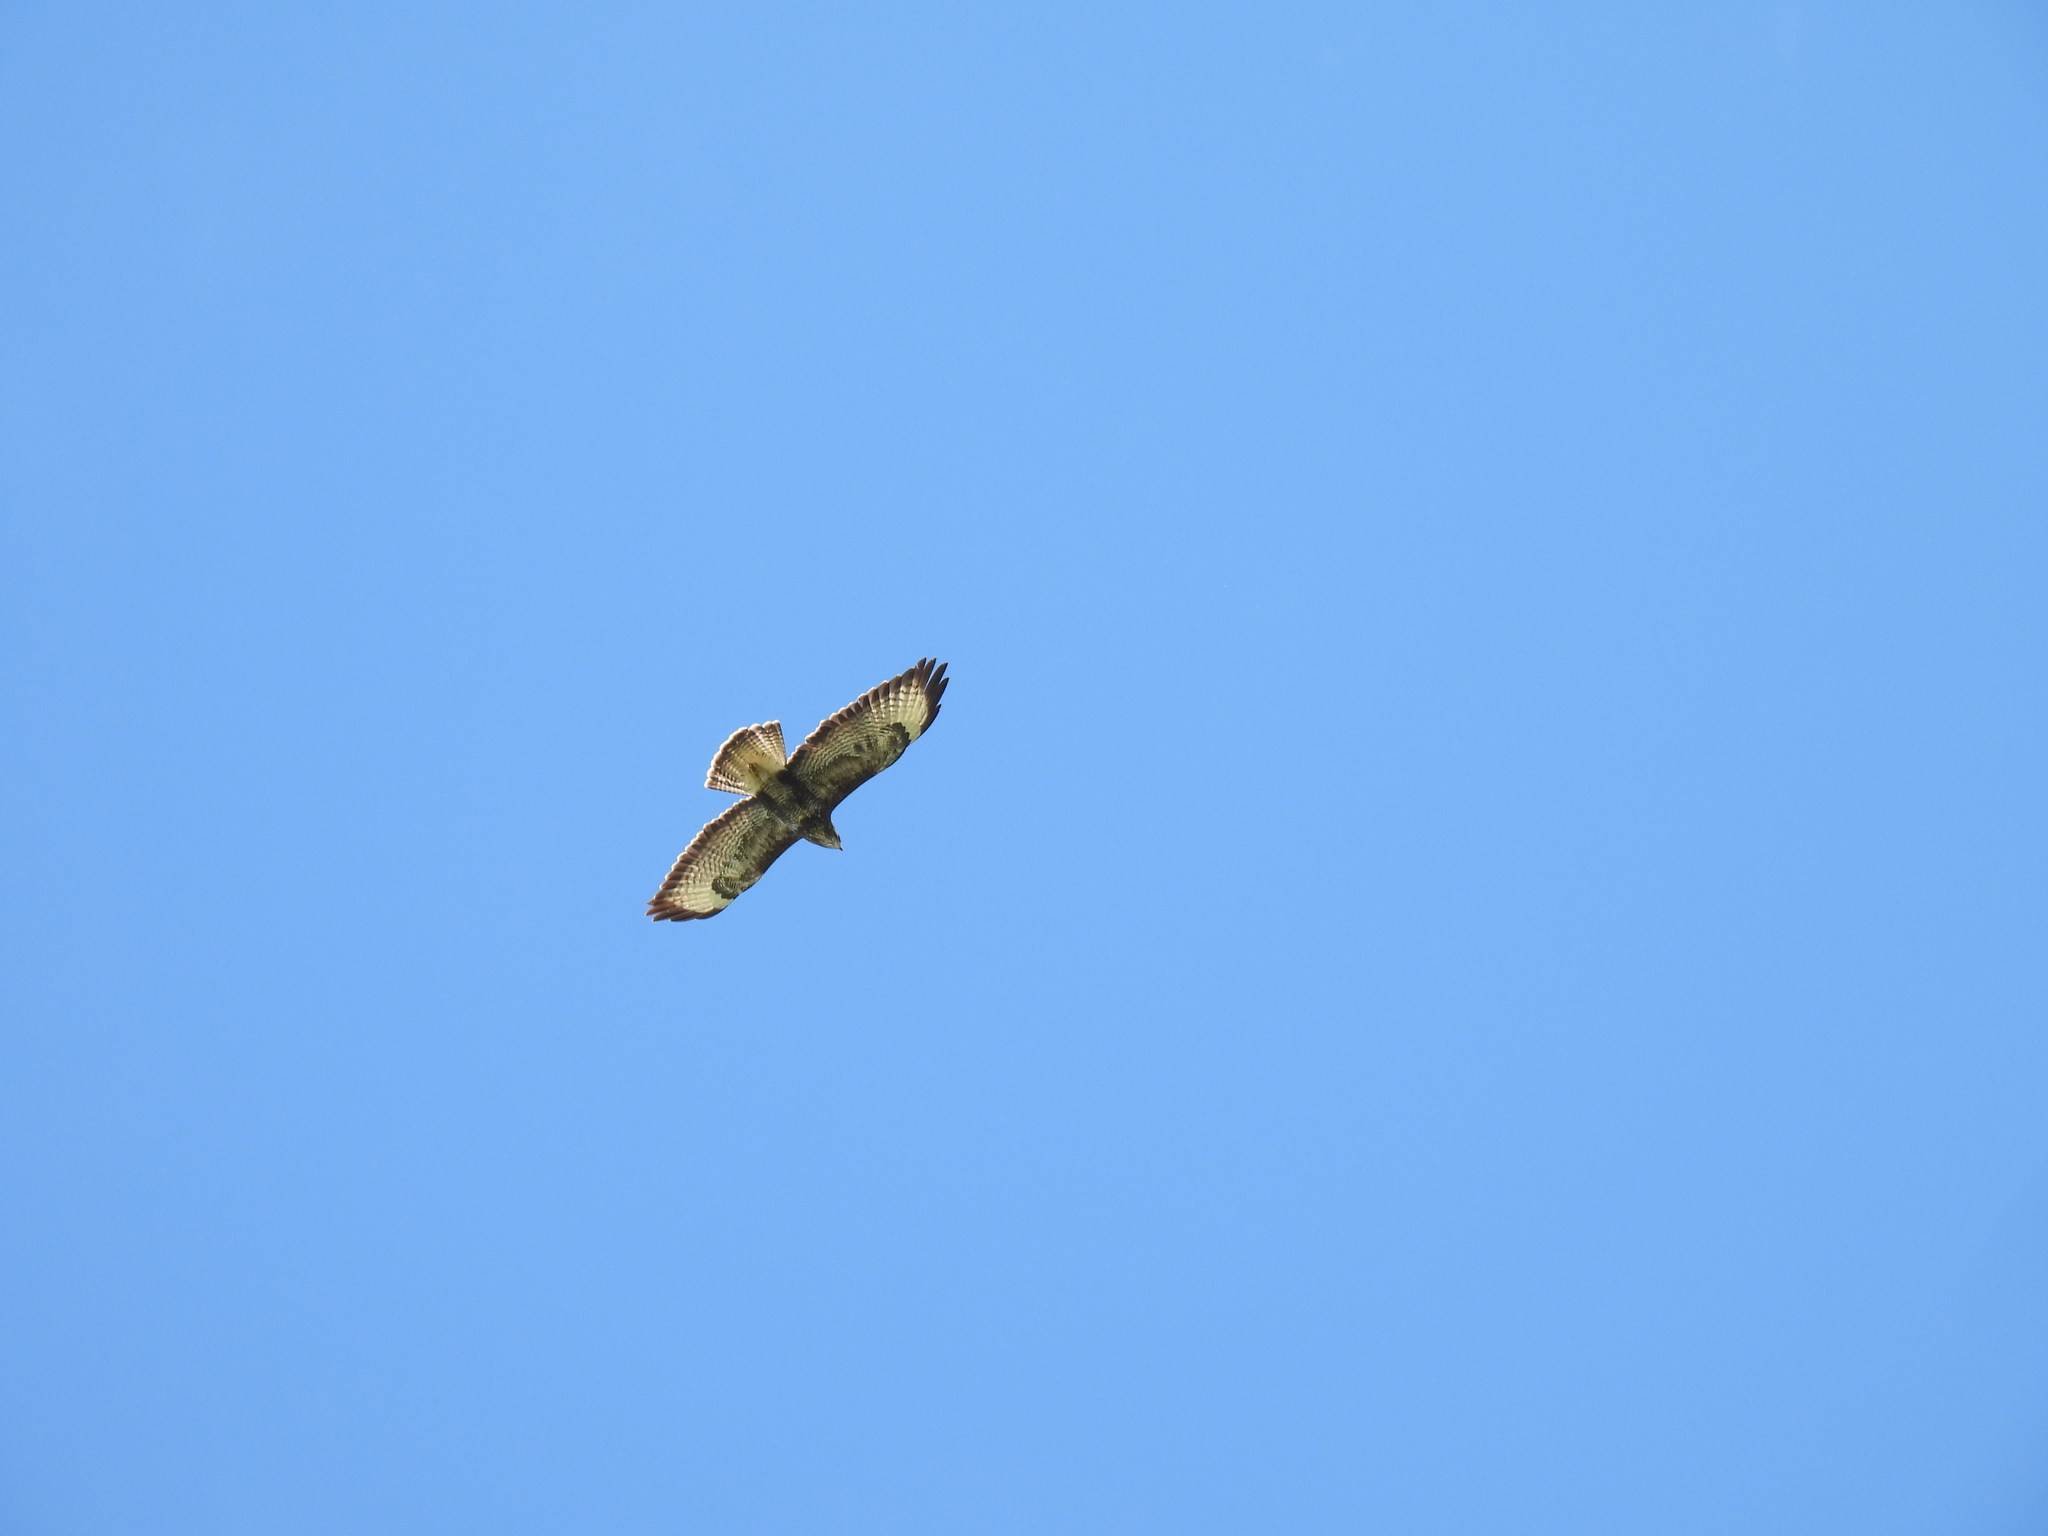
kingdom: Animalia
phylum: Chordata
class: Aves
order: Accipitriformes
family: Accipitridae
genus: Buteo
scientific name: Buteo buteo
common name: Common buzzard
